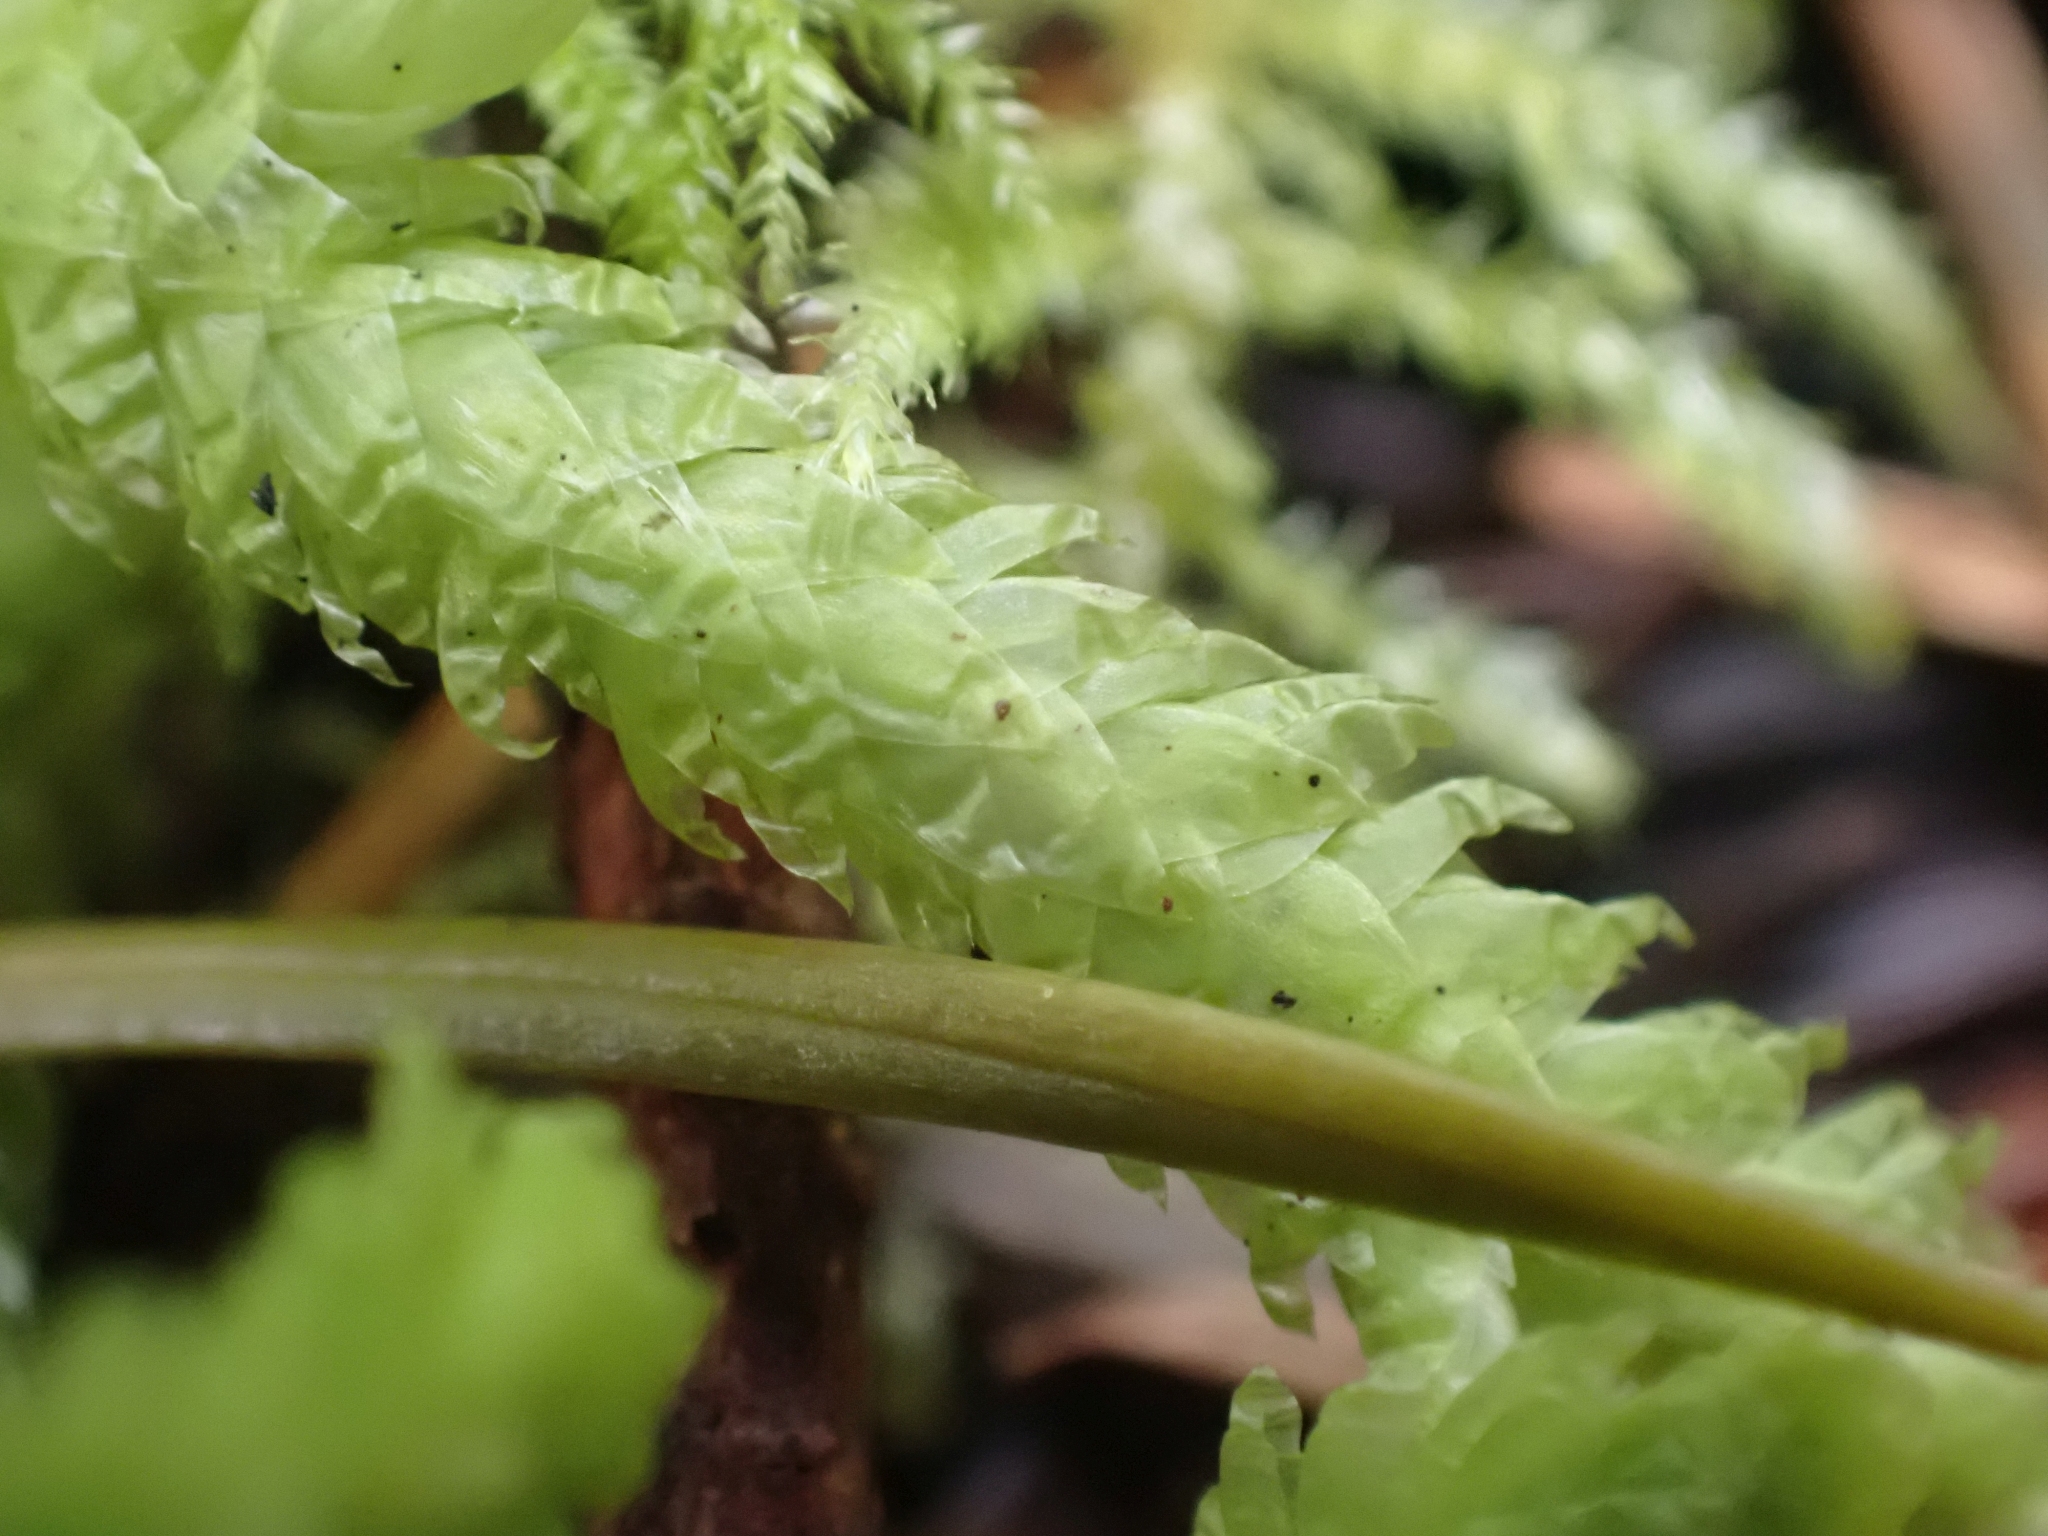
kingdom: Plantae
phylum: Bryophyta
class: Bryopsida
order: Hypnales
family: Plagiotheciaceae
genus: Plagiothecium
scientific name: Plagiothecium undulatum
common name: Waved silk-moss
